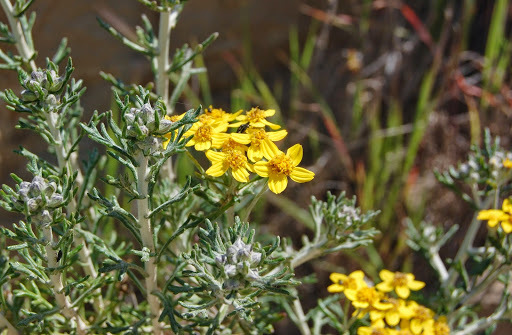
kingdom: Plantae
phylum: Tracheophyta
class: Magnoliopsida
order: Asterales
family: Asteraceae
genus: Eriophyllum
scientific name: Eriophyllum confertiflorum
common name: Golden-yarrow
